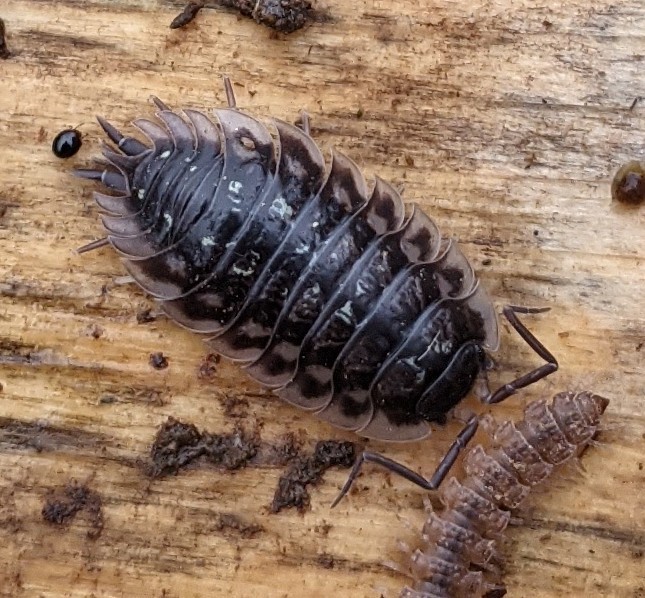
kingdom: Animalia
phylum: Arthropoda
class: Malacostraca
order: Isopoda
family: Oniscidae
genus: Oniscus
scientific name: Oniscus asellus
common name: Common shiny woodlouse
